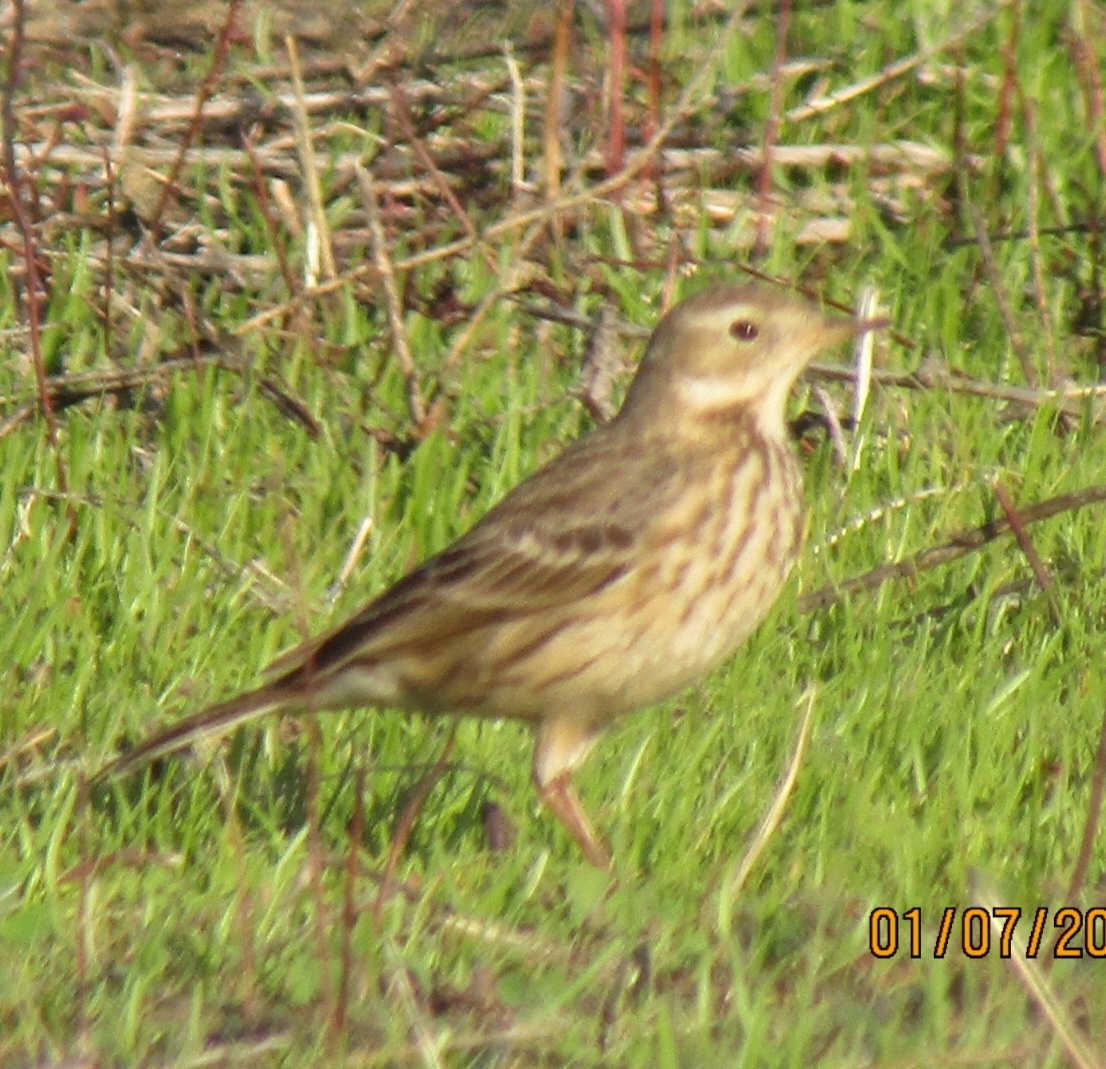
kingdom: Animalia
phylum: Chordata
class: Aves
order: Passeriformes
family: Motacillidae
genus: Anthus
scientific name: Anthus rubescens
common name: Buff-bellied pipit
